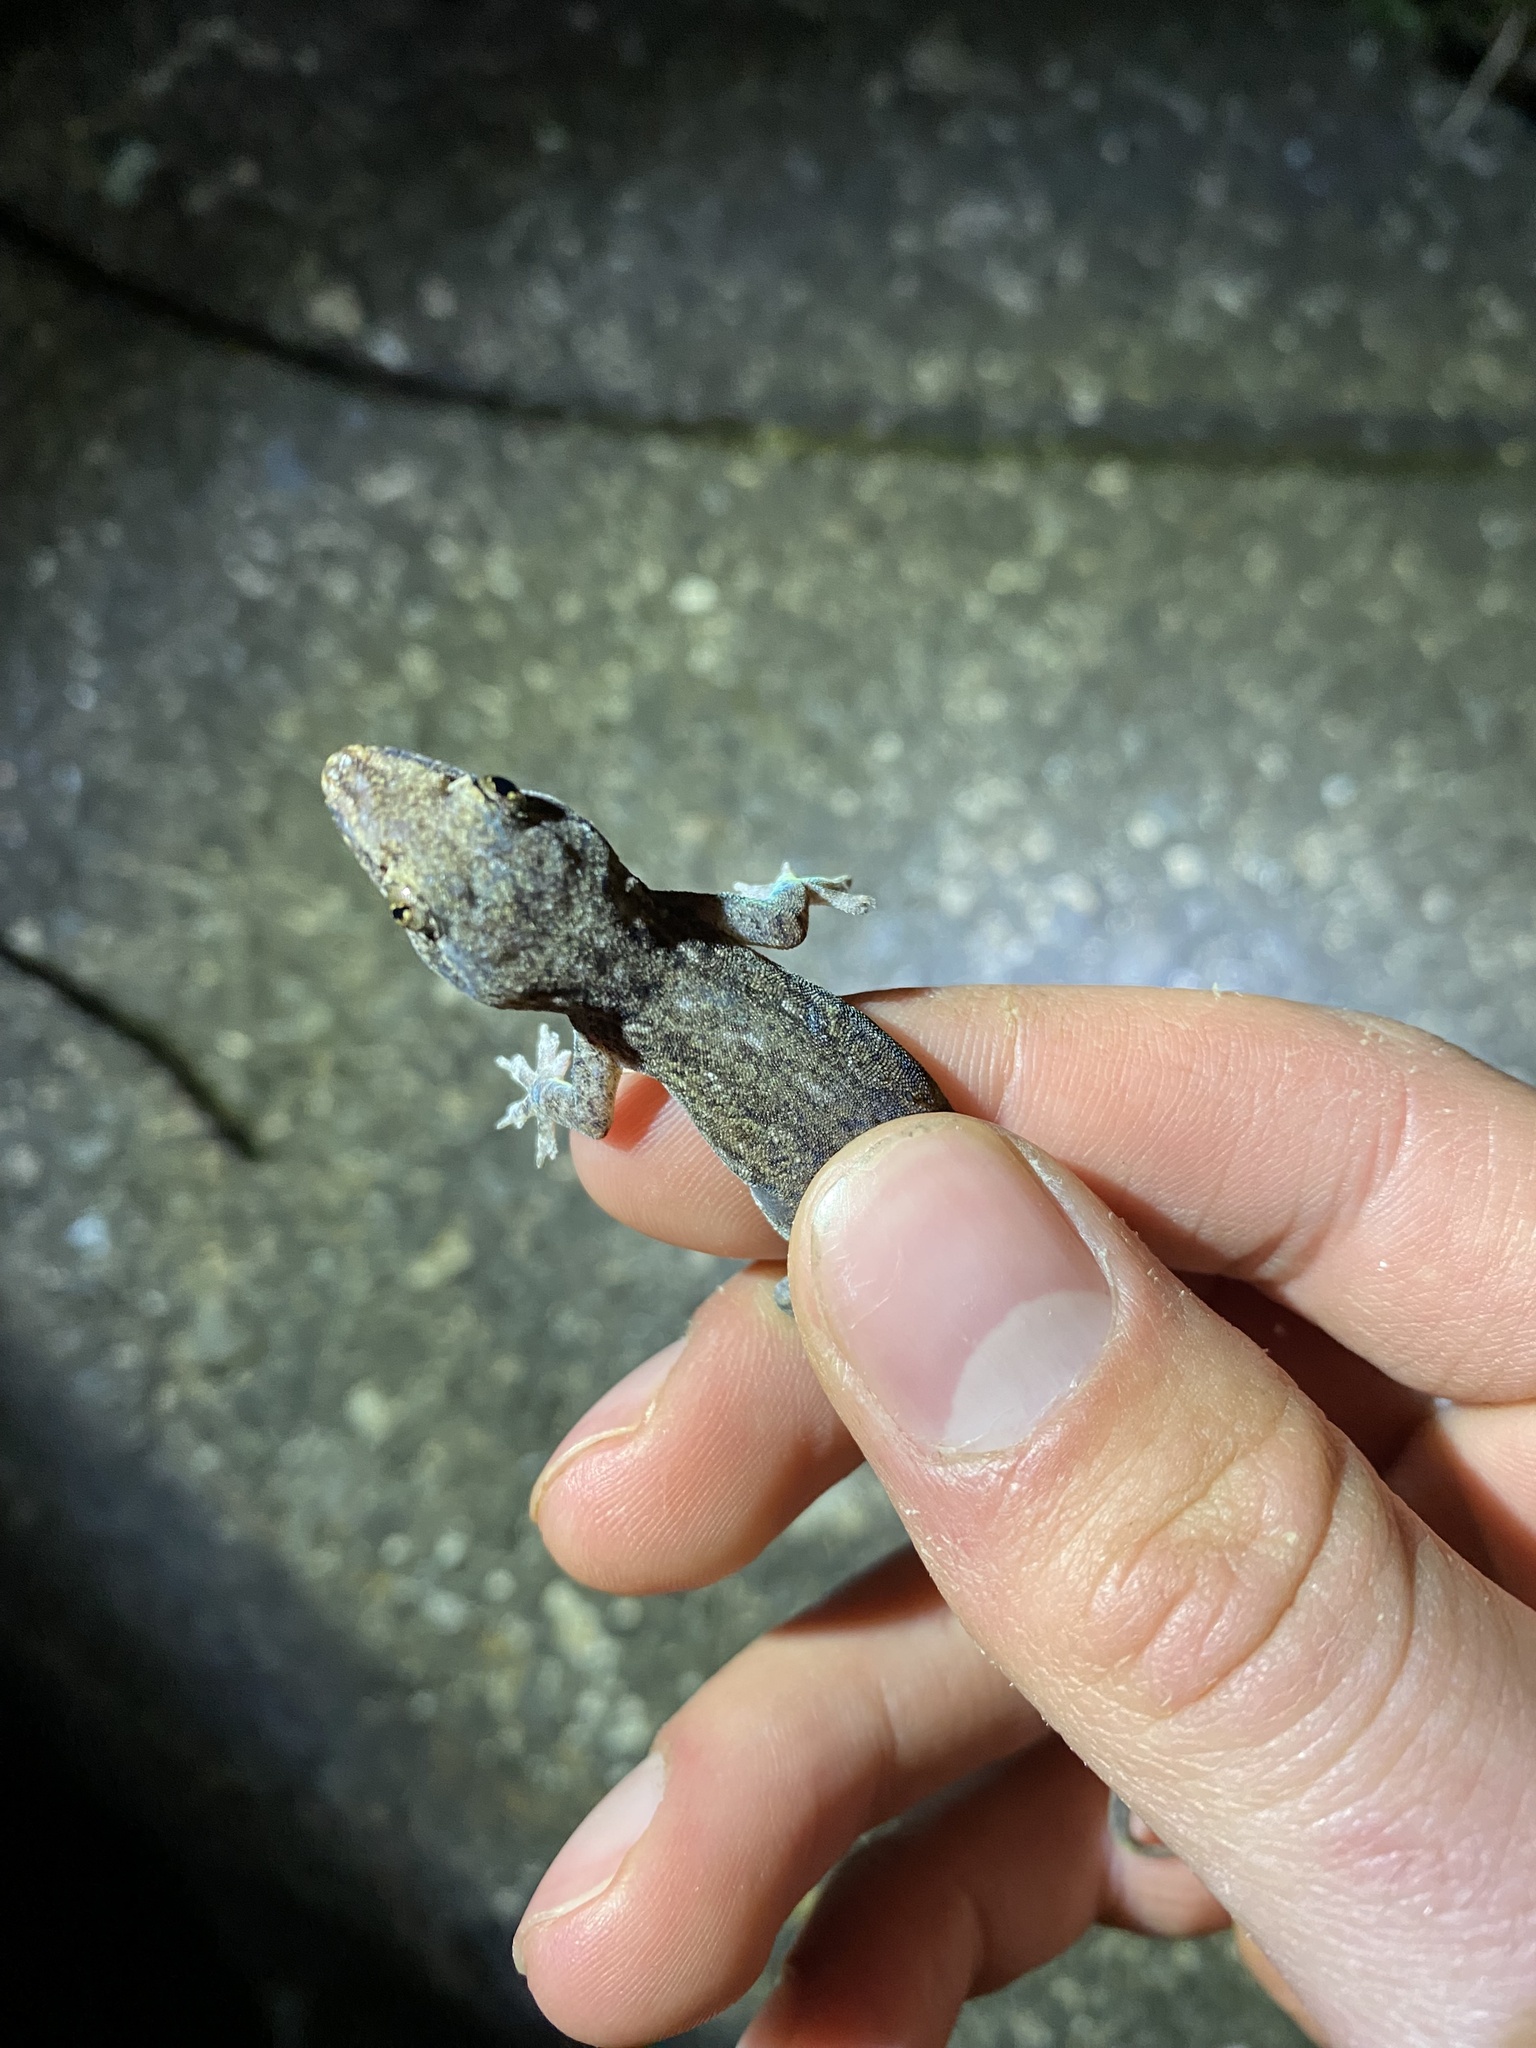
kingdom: Animalia
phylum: Chordata
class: Squamata
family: Gekkonidae
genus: Hemidactylus
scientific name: Hemidactylus frenatus
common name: Common house gecko
